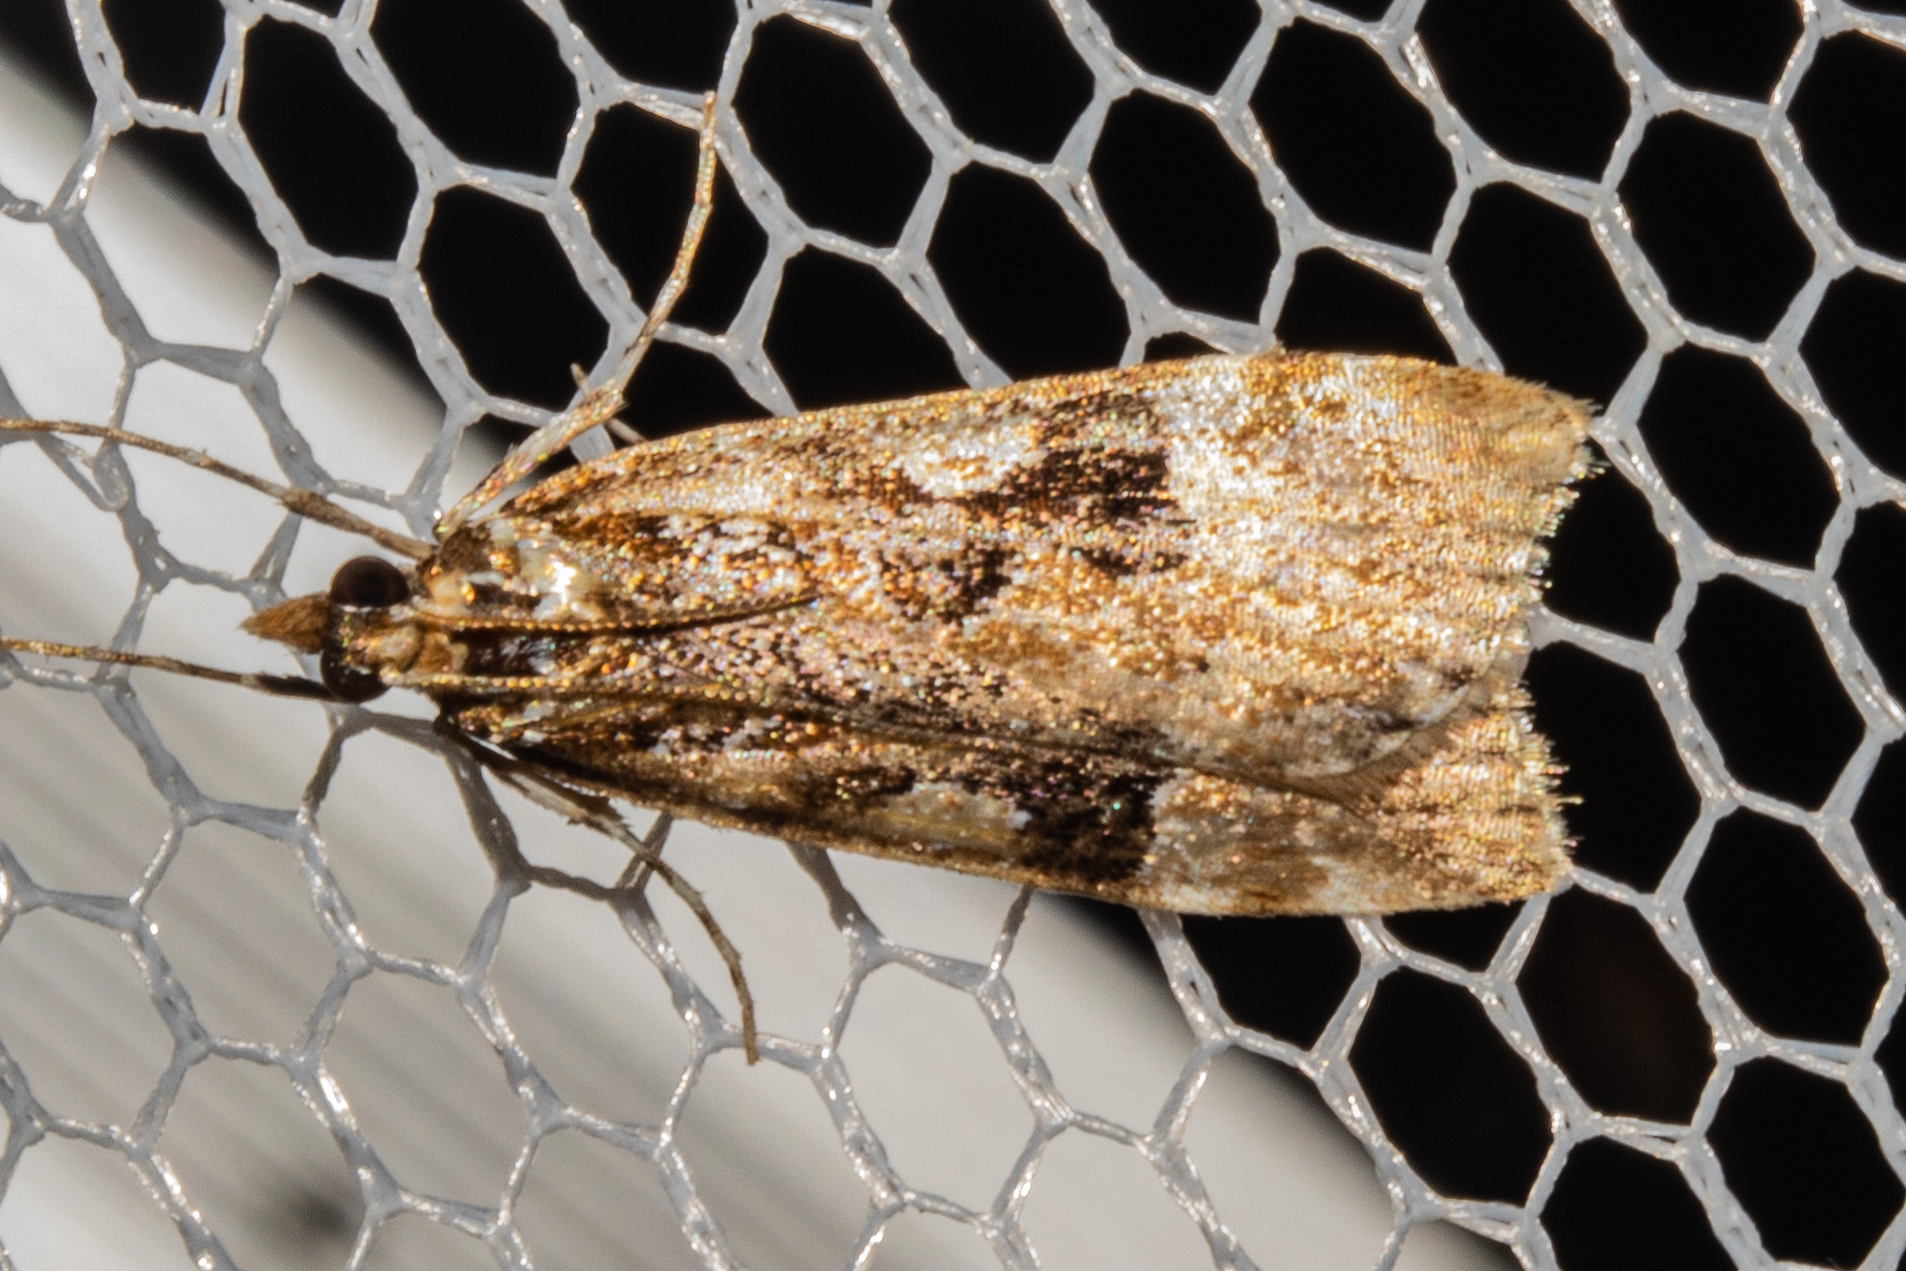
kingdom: Animalia
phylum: Arthropoda
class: Insecta
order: Lepidoptera
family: Crambidae
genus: Scoparia
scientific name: Scoparia ustimacula
